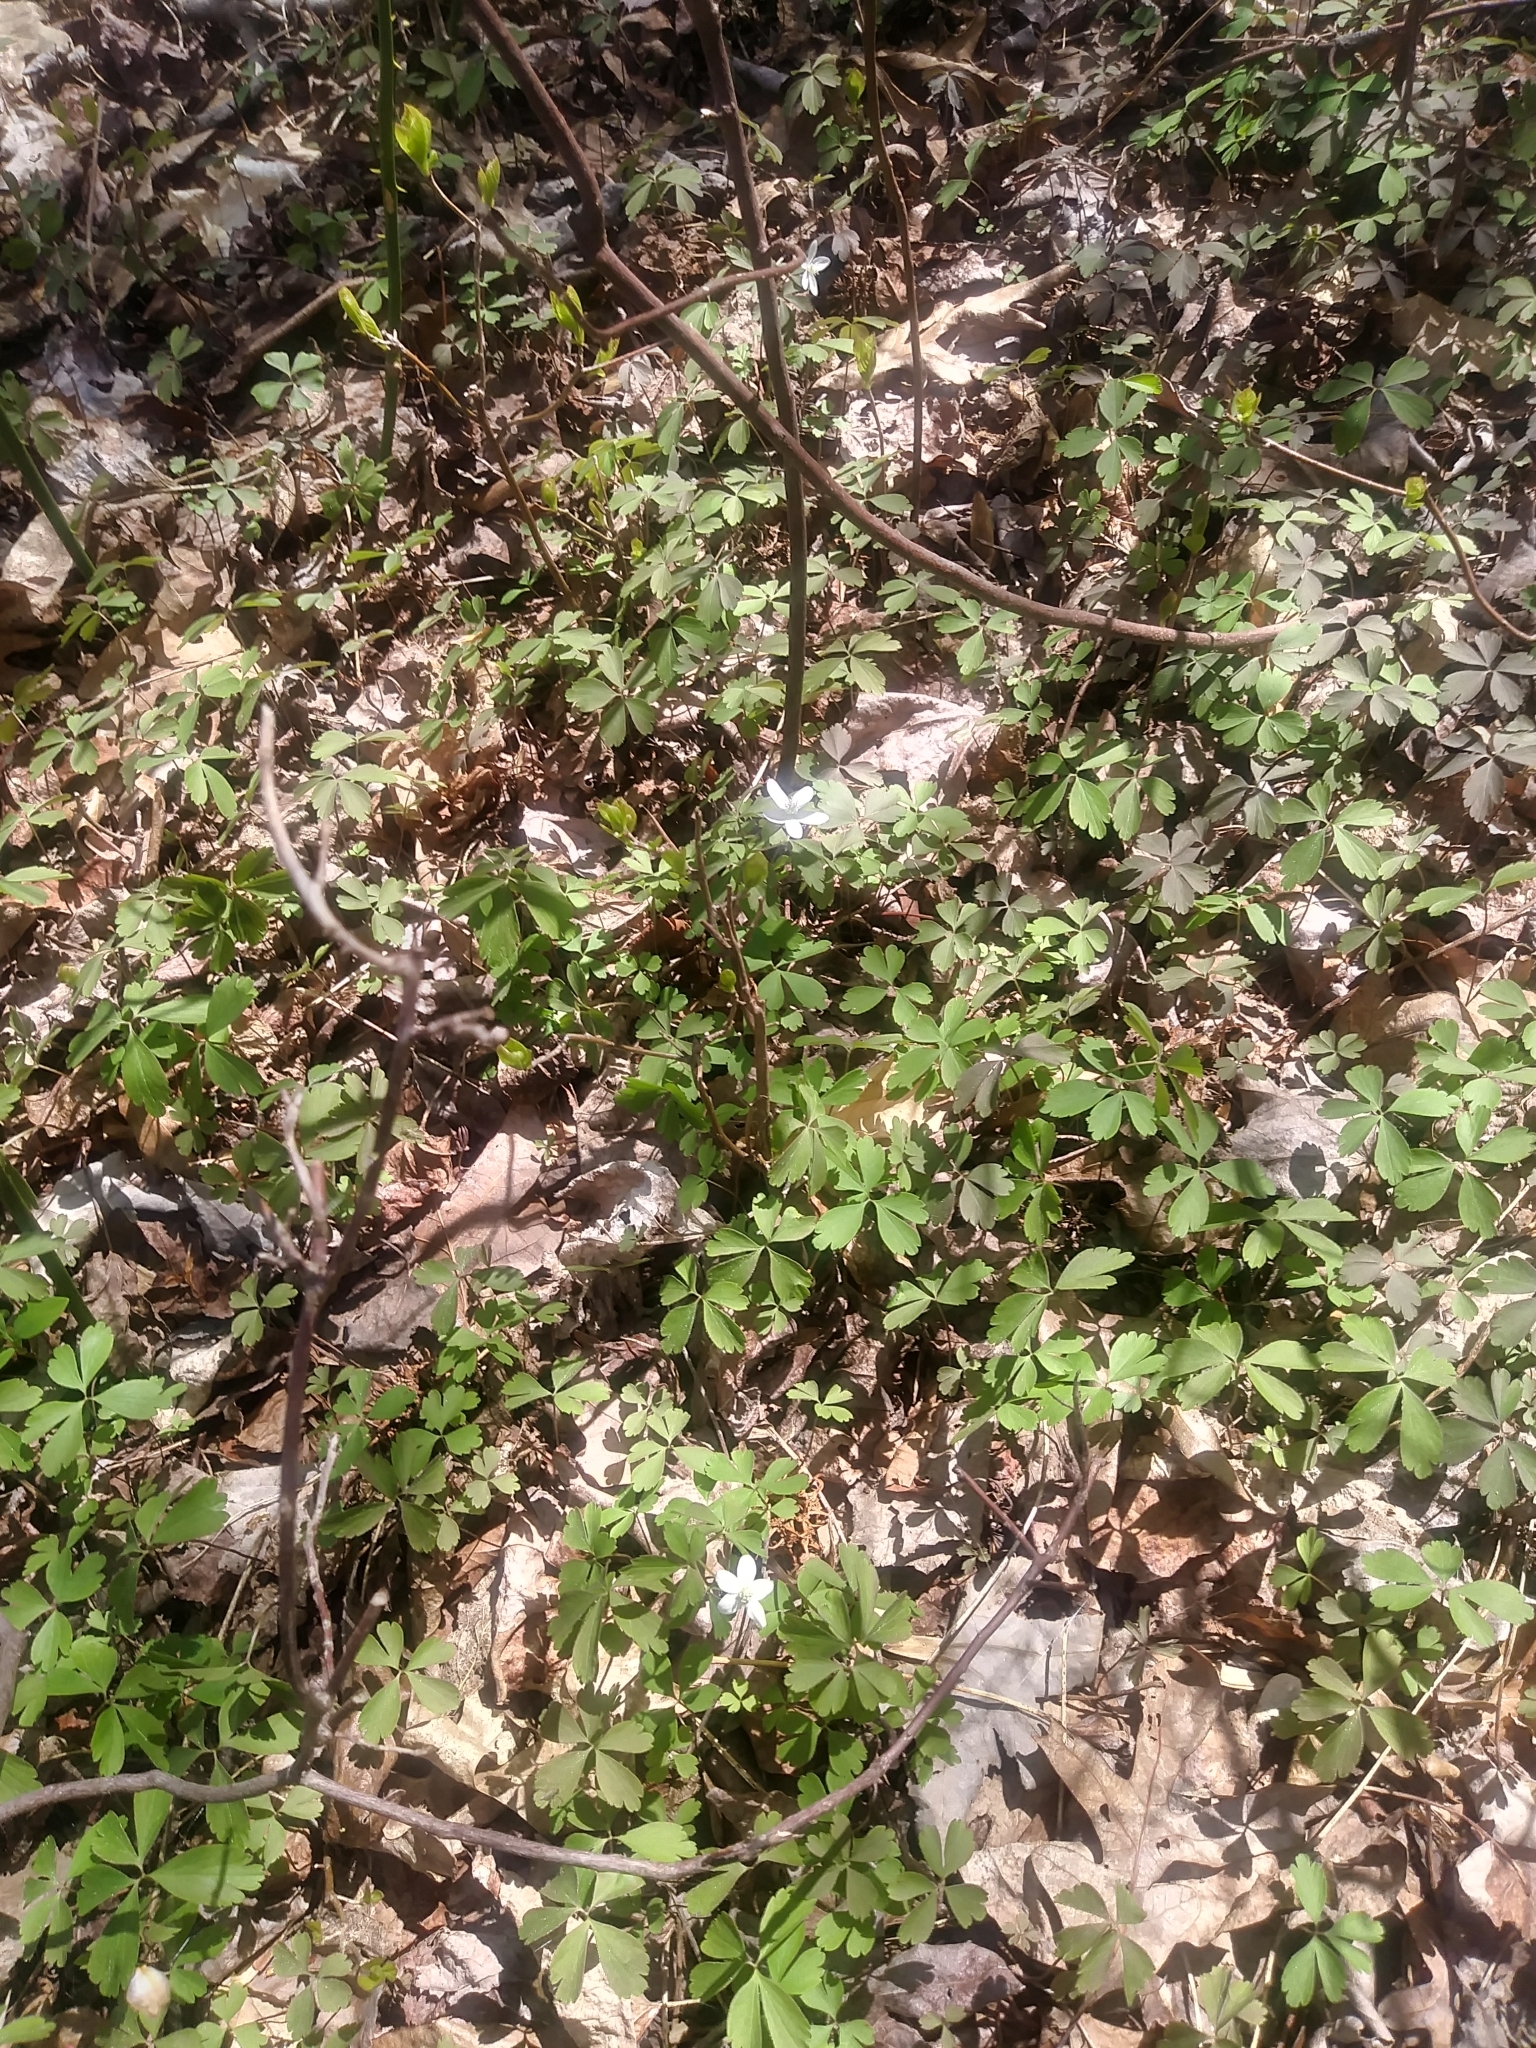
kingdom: Plantae
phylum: Tracheophyta
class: Magnoliopsida
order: Ranunculales
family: Ranunculaceae
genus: Anemone
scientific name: Anemone quinquefolia
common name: Wood anemone
